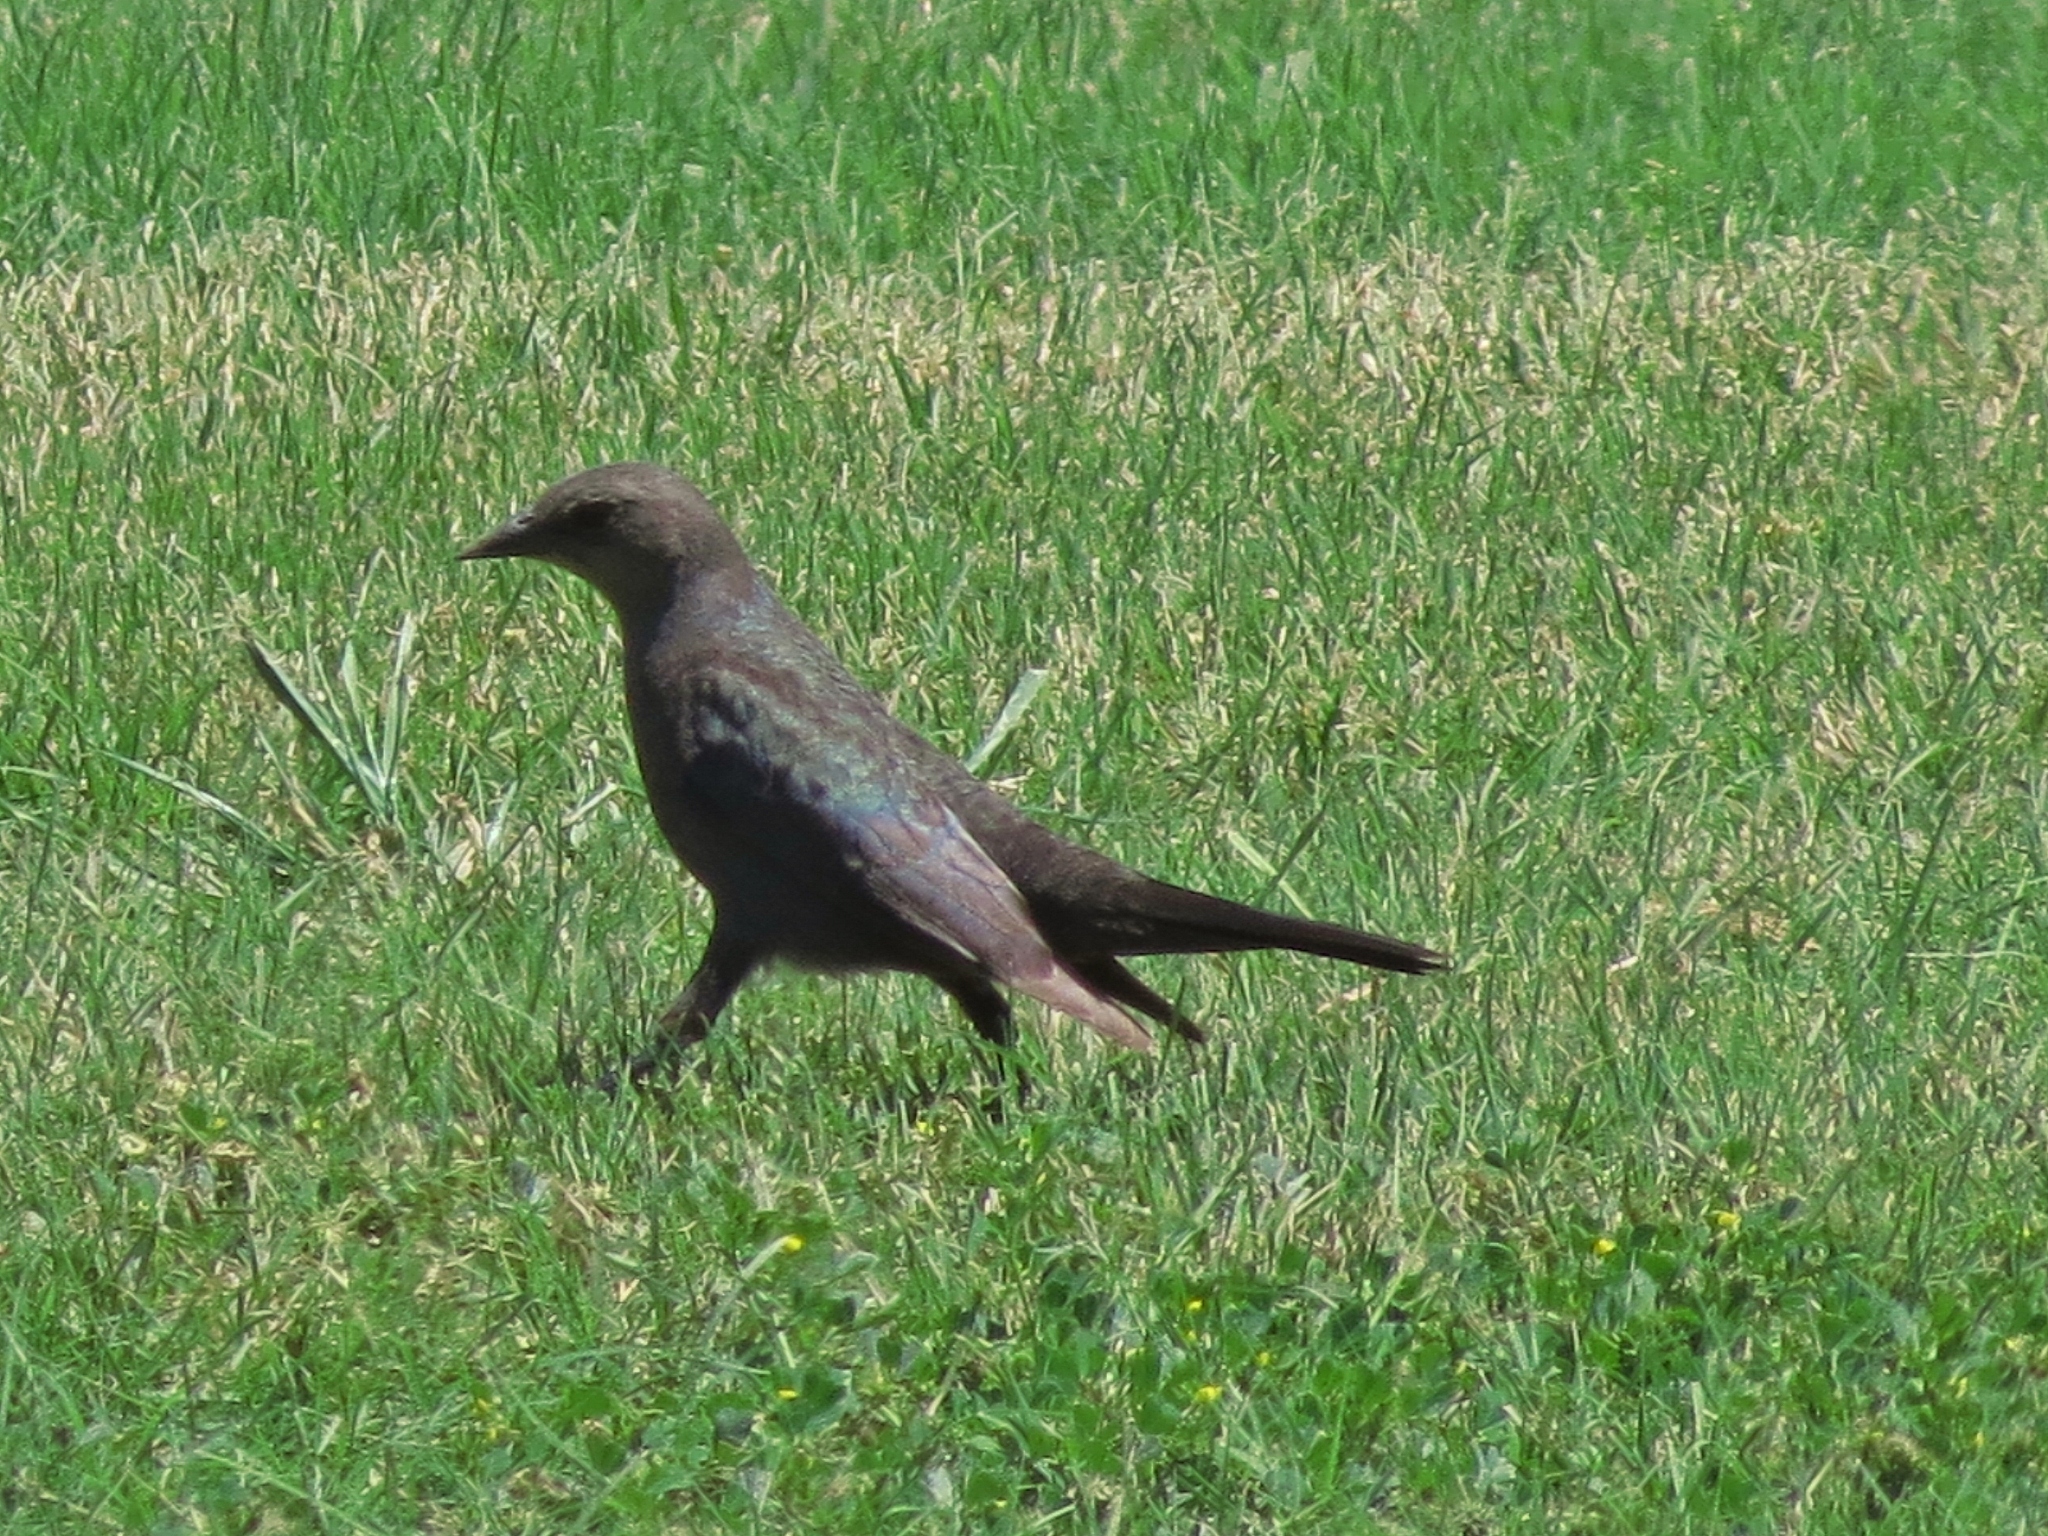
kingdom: Animalia
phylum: Chordata
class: Aves
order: Passeriformes
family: Icteridae
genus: Euphagus
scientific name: Euphagus cyanocephalus
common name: Brewer's blackbird
